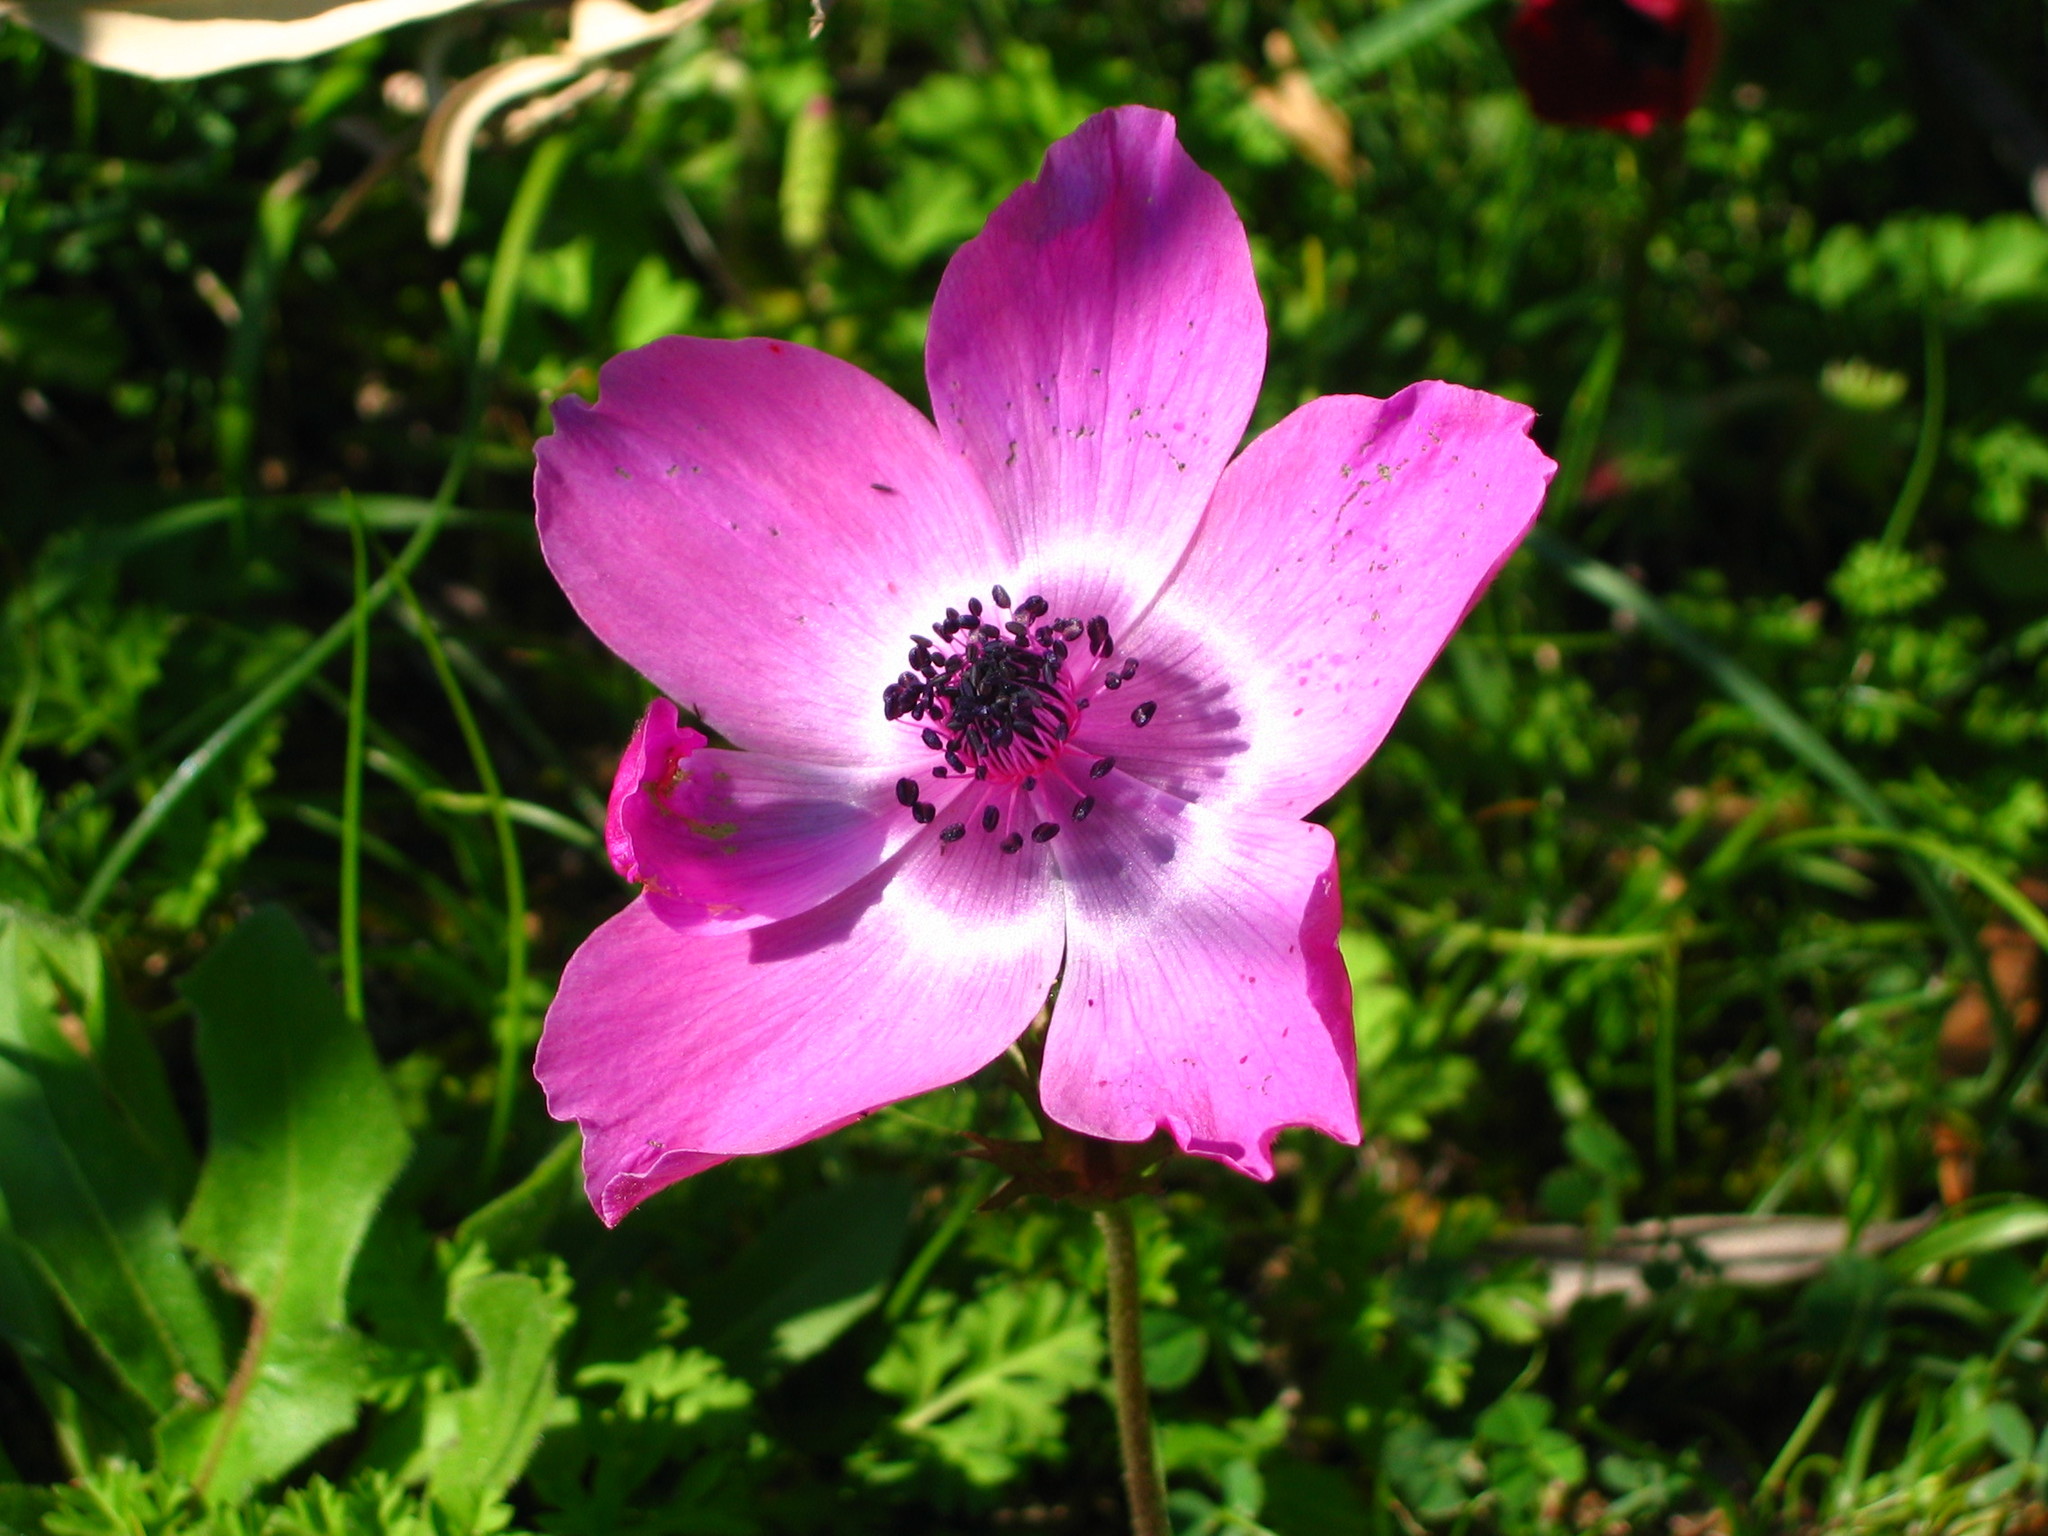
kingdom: Plantae
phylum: Tracheophyta
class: Magnoliopsida
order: Ranunculales
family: Ranunculaceae
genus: Anemone
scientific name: Anemone coronaria
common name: Poppy anemone
